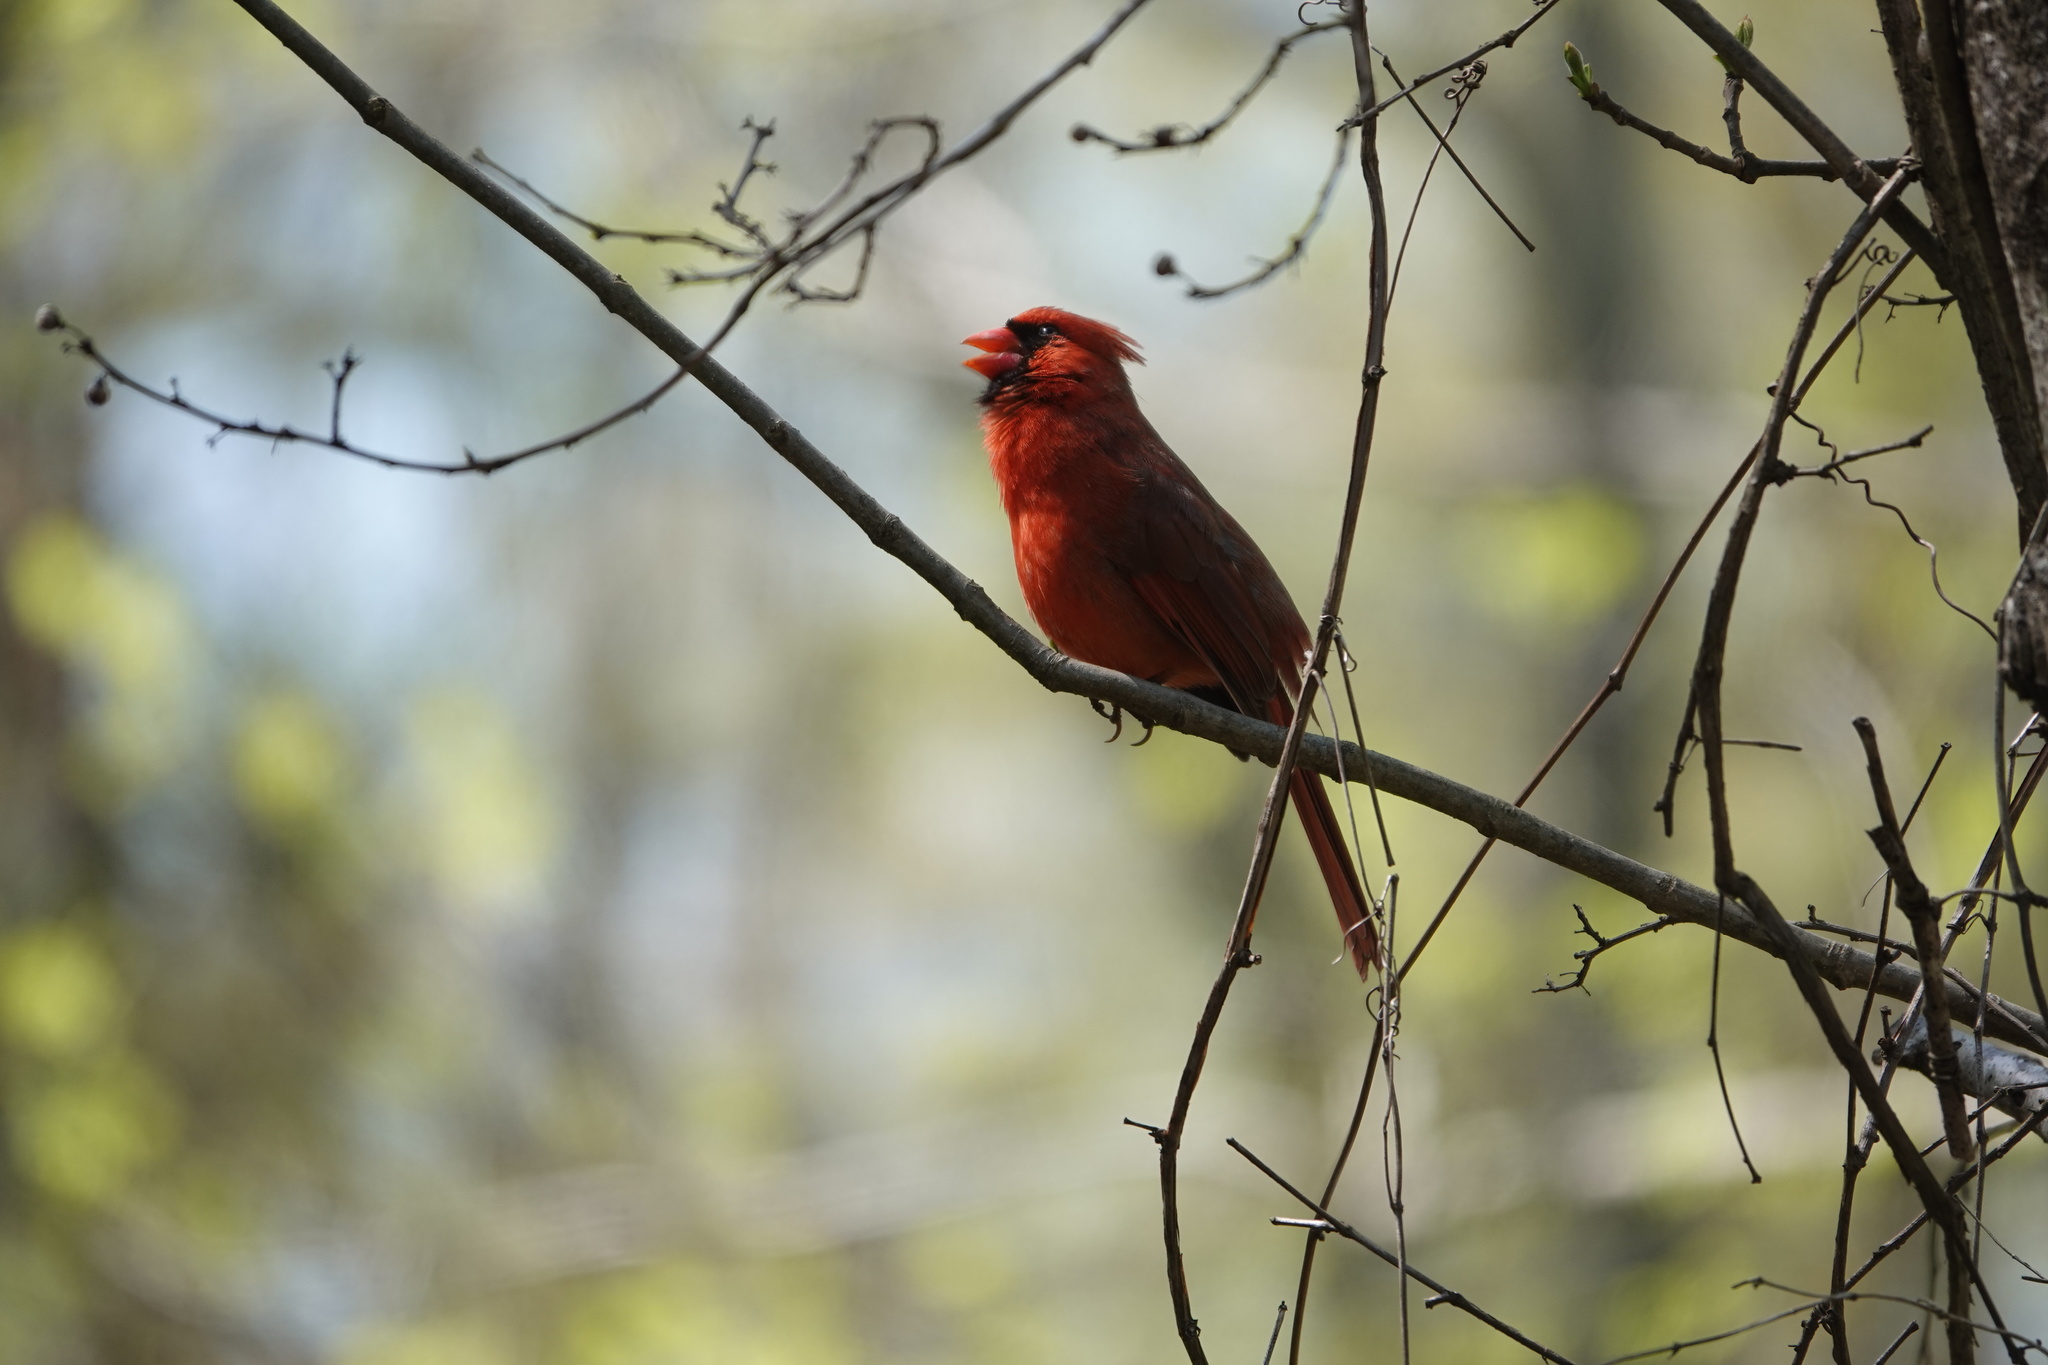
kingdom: Animalia
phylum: Chordata
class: Aves
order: Passeriformes
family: Cardinalidae
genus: Cardinalis
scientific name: Cardinalis cardinalis
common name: Northern cardinal
